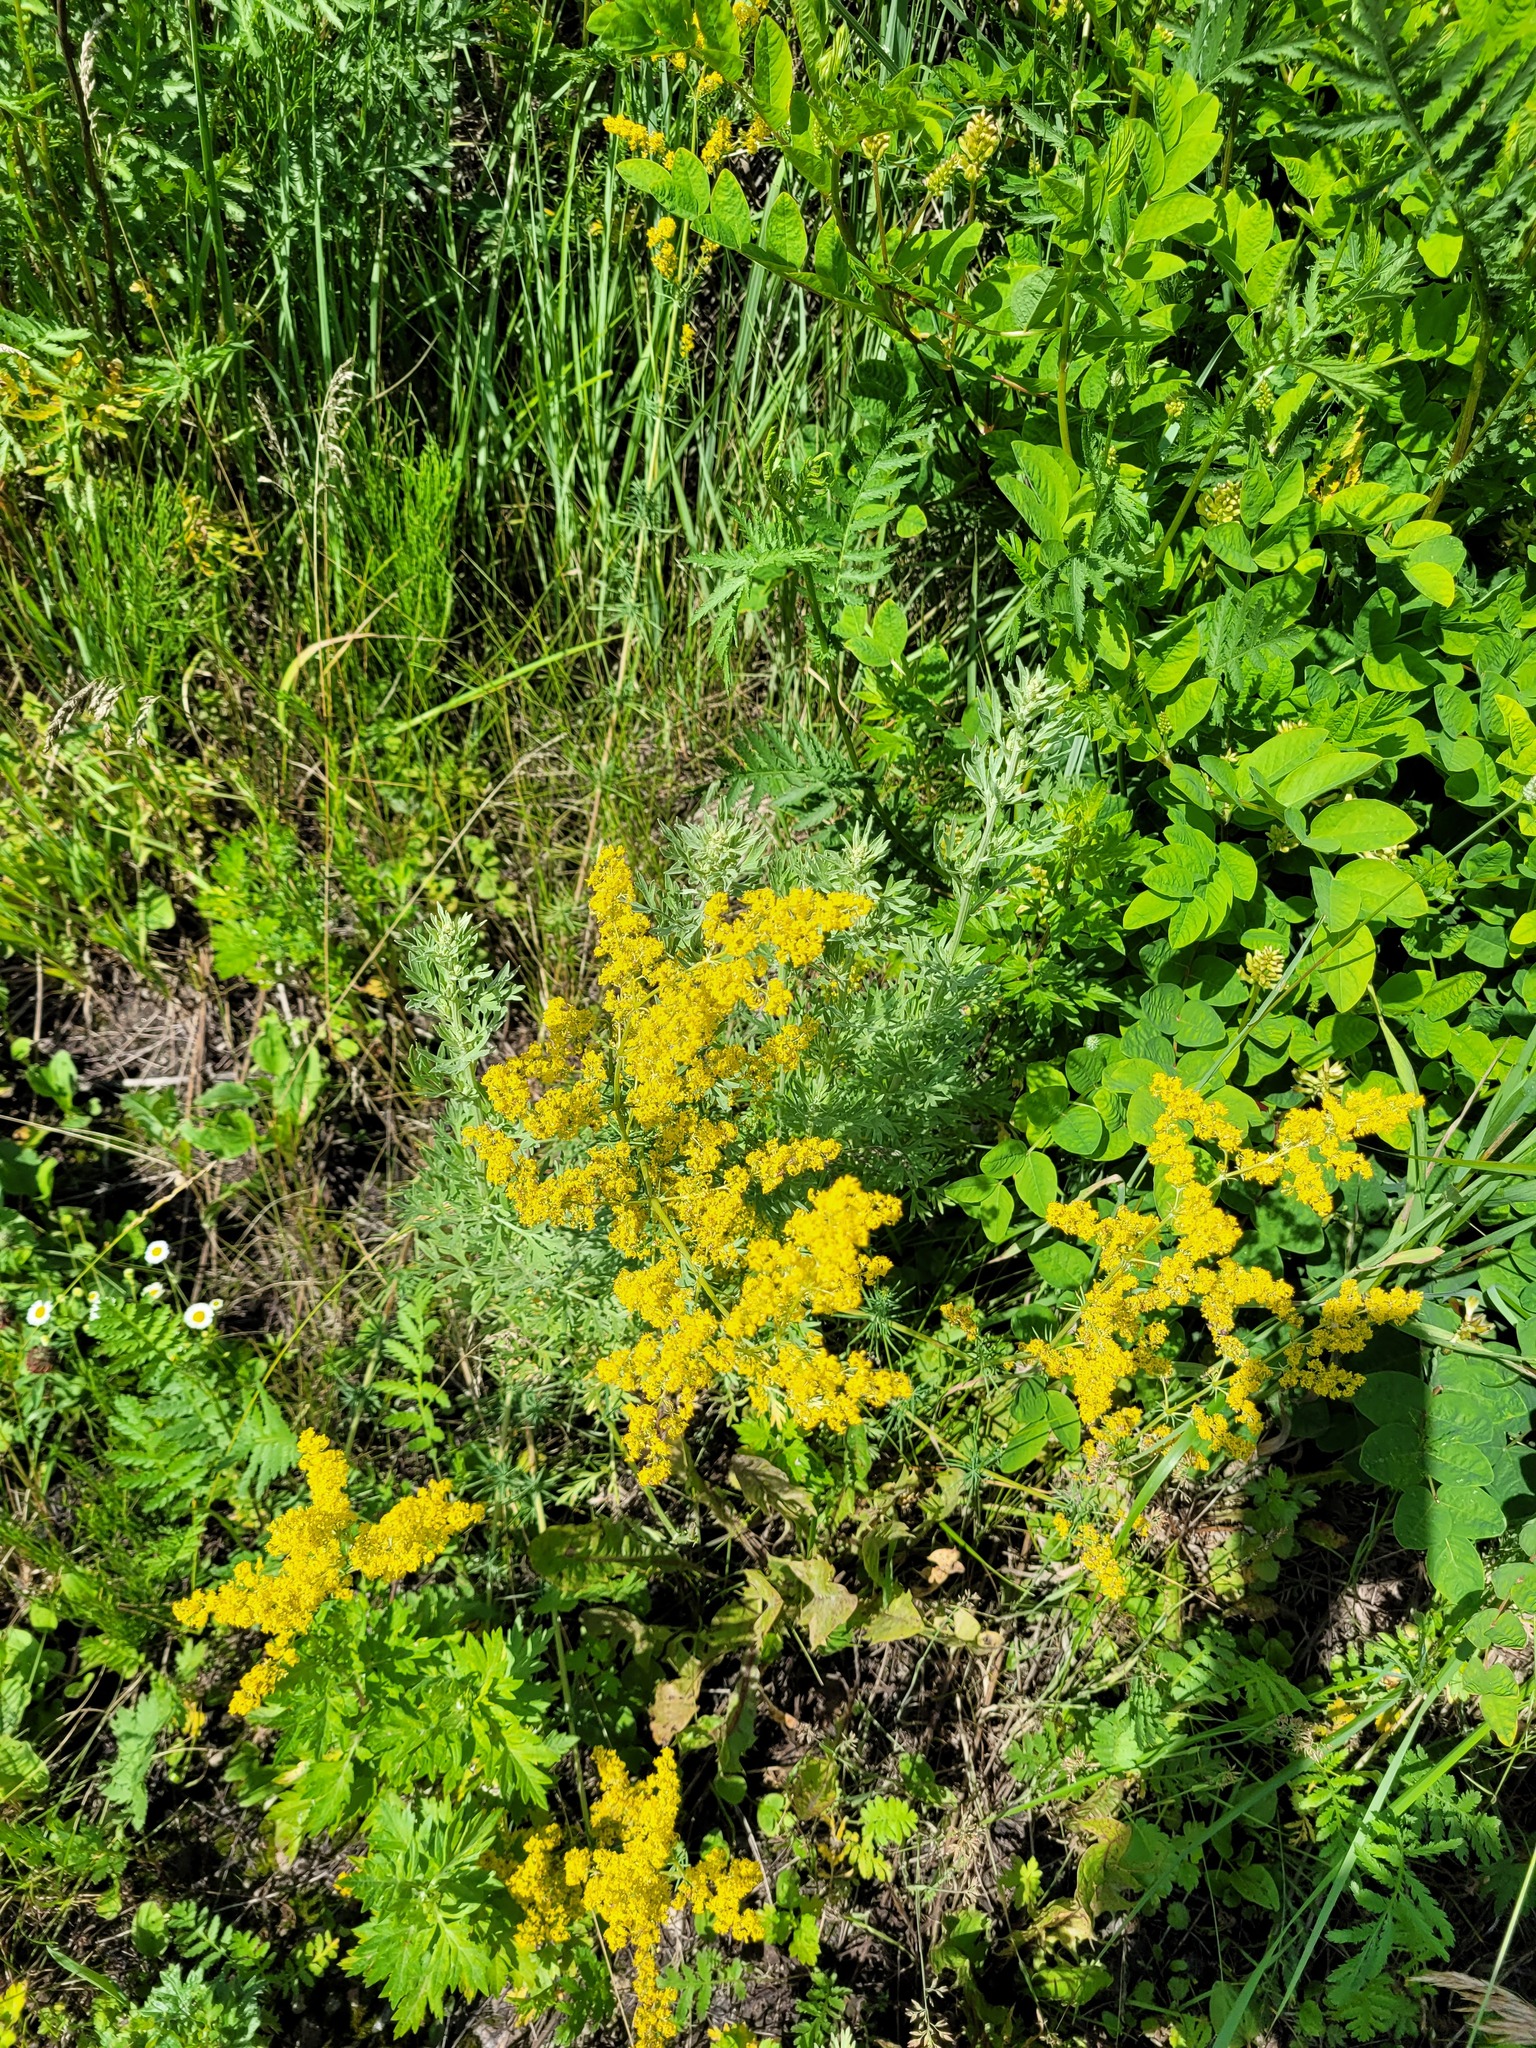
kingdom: Plantae
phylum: Tracheophyta
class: Magnoliopsida
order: Gentianales
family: Rubiaceae
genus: Galium
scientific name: Galium verum
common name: Lady's bedstraw
